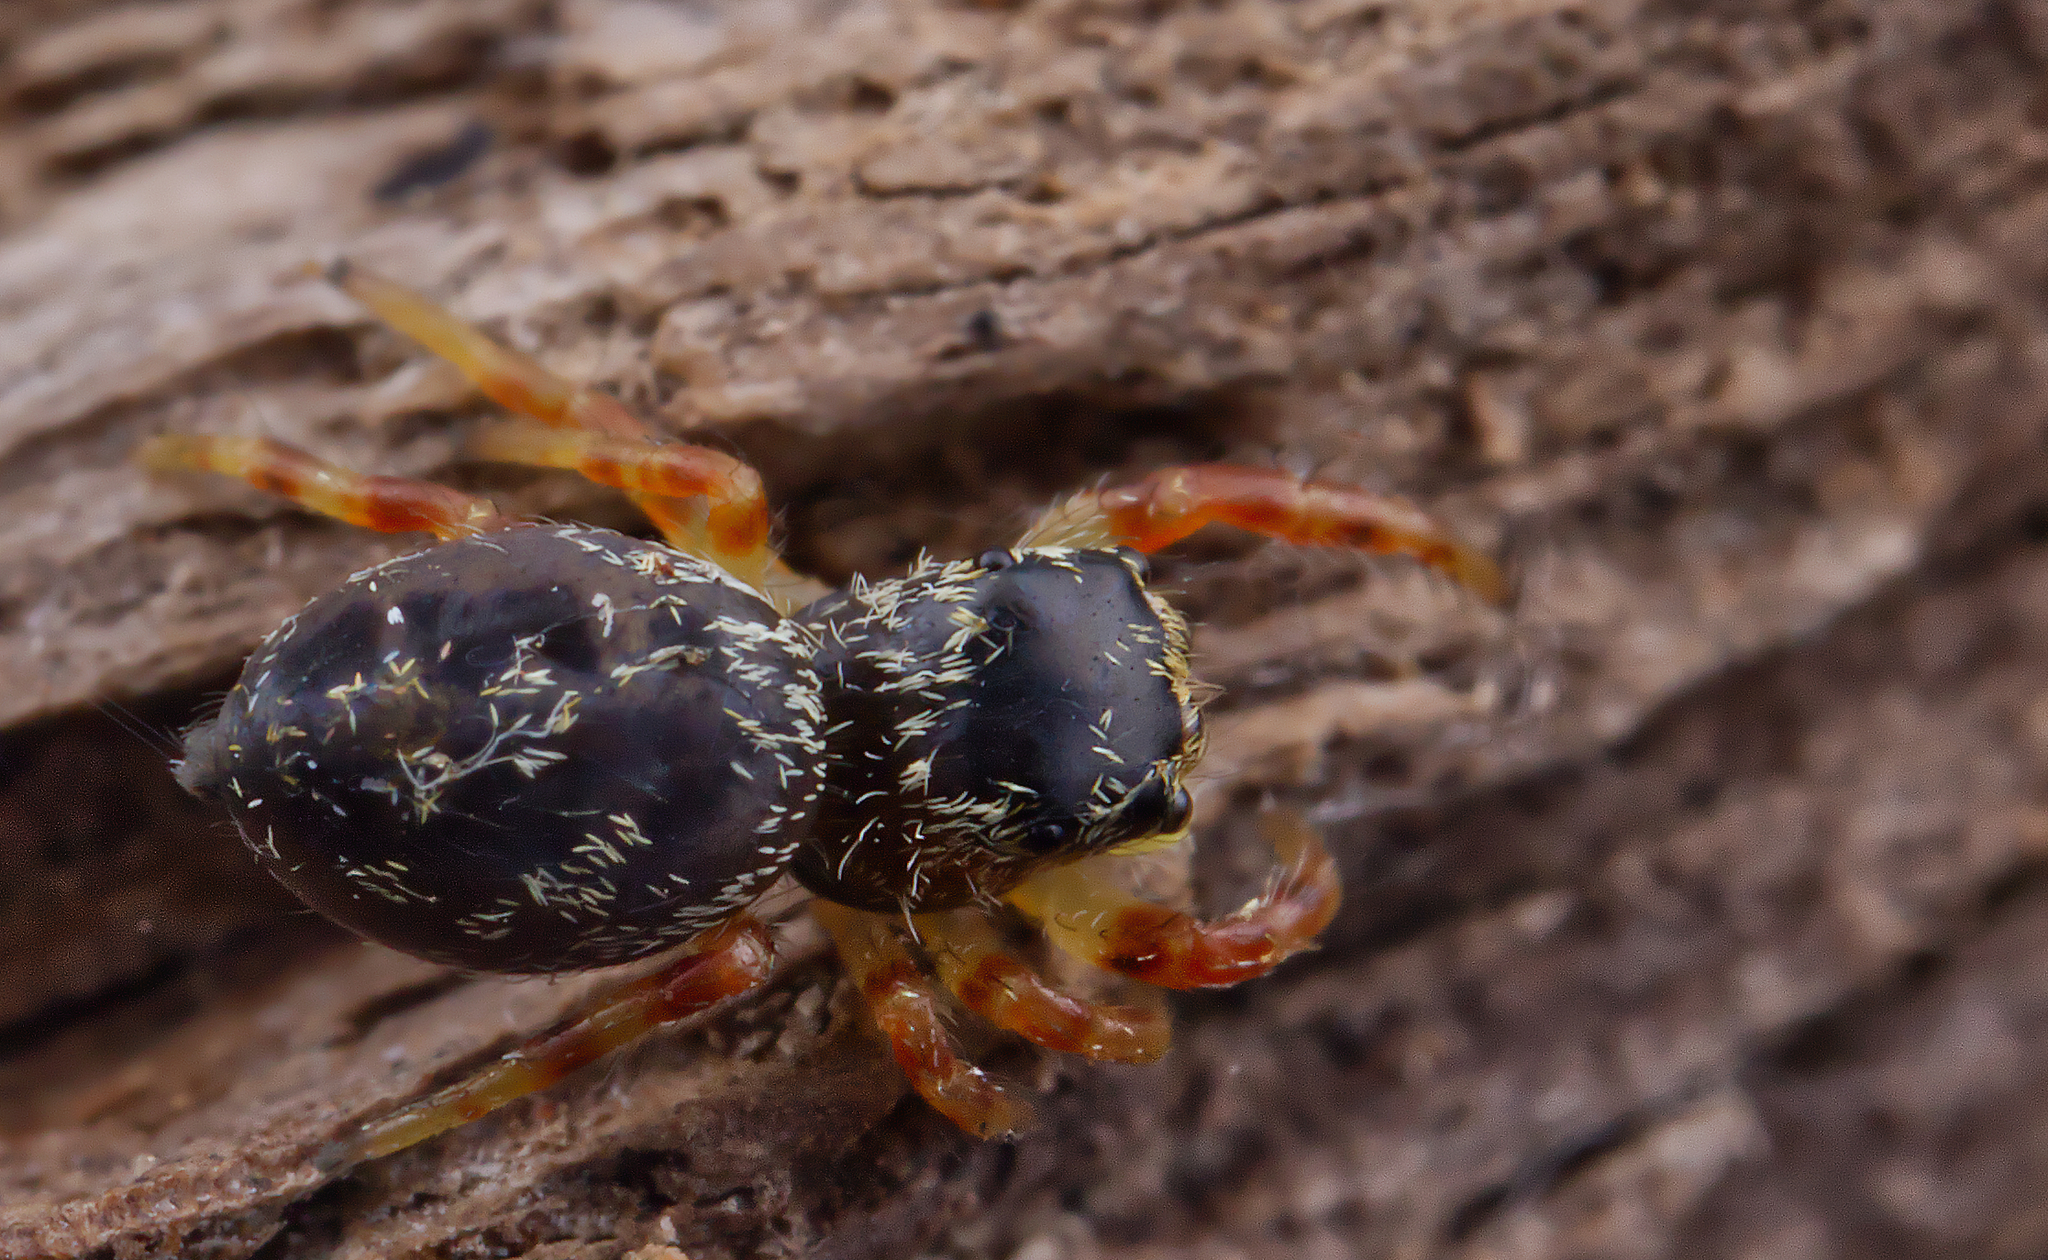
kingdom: Animalia
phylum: Arthropoda
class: Arachnida
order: Araneae
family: Salticidae
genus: Phidippus
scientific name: Phidippus princeps
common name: Grayish jumping spider
